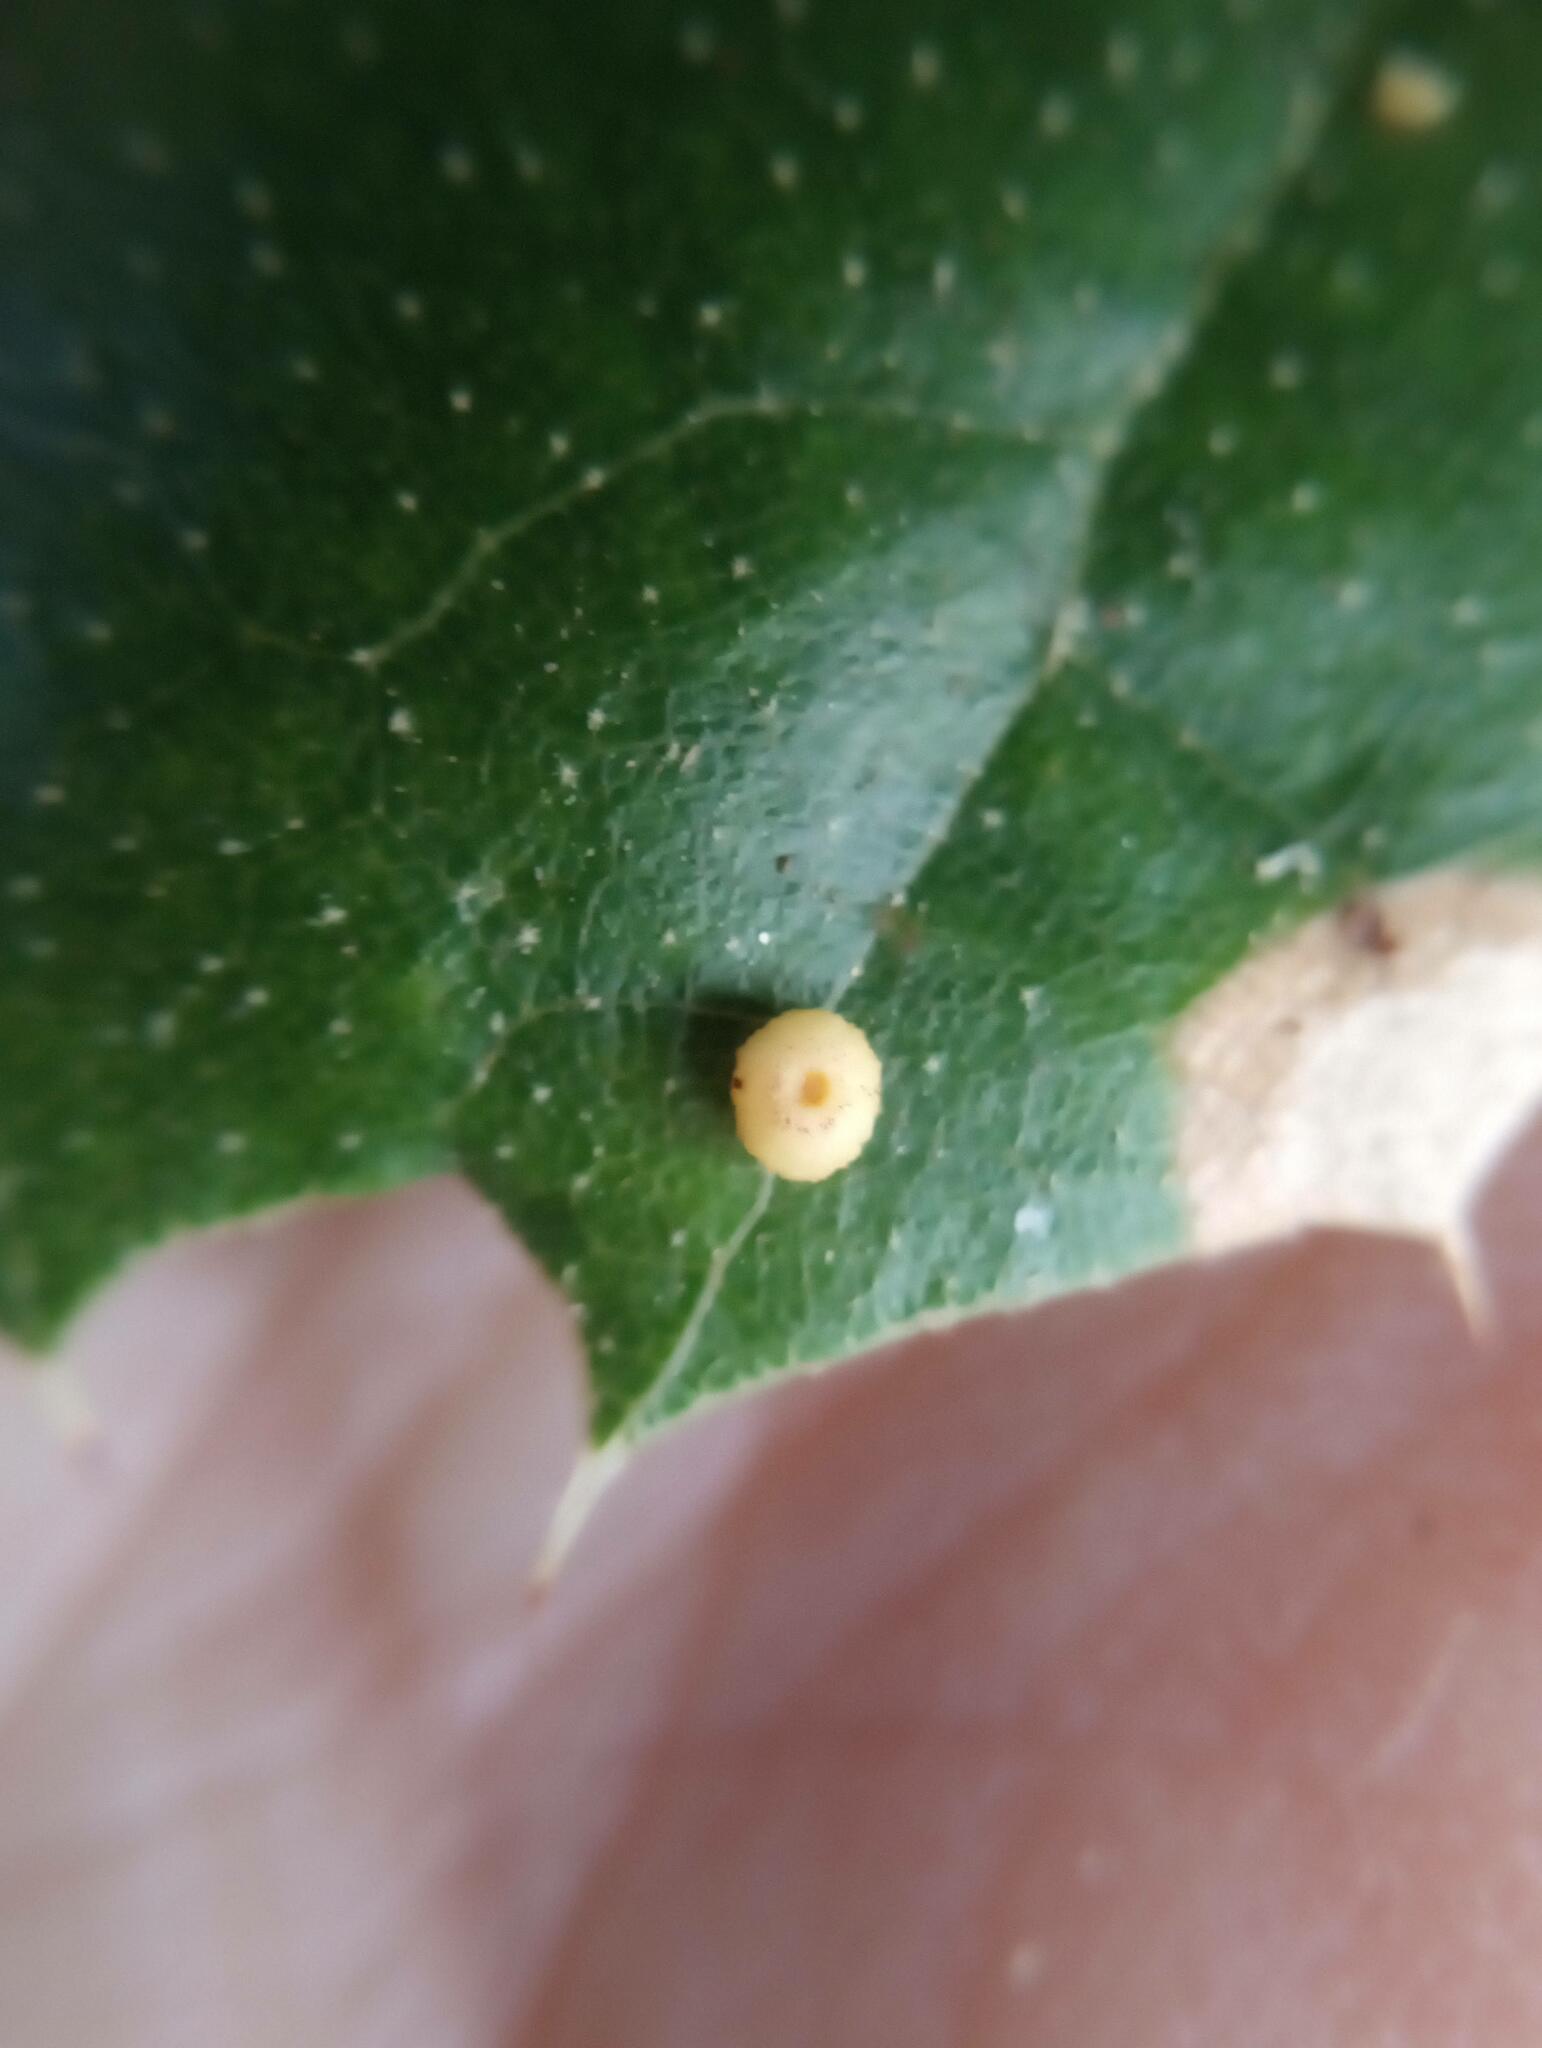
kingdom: Animalia
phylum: Arthropoda
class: Insecta
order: Hymenoptera
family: Cynipidae
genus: Dryocosmus
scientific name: Dryocosmus
